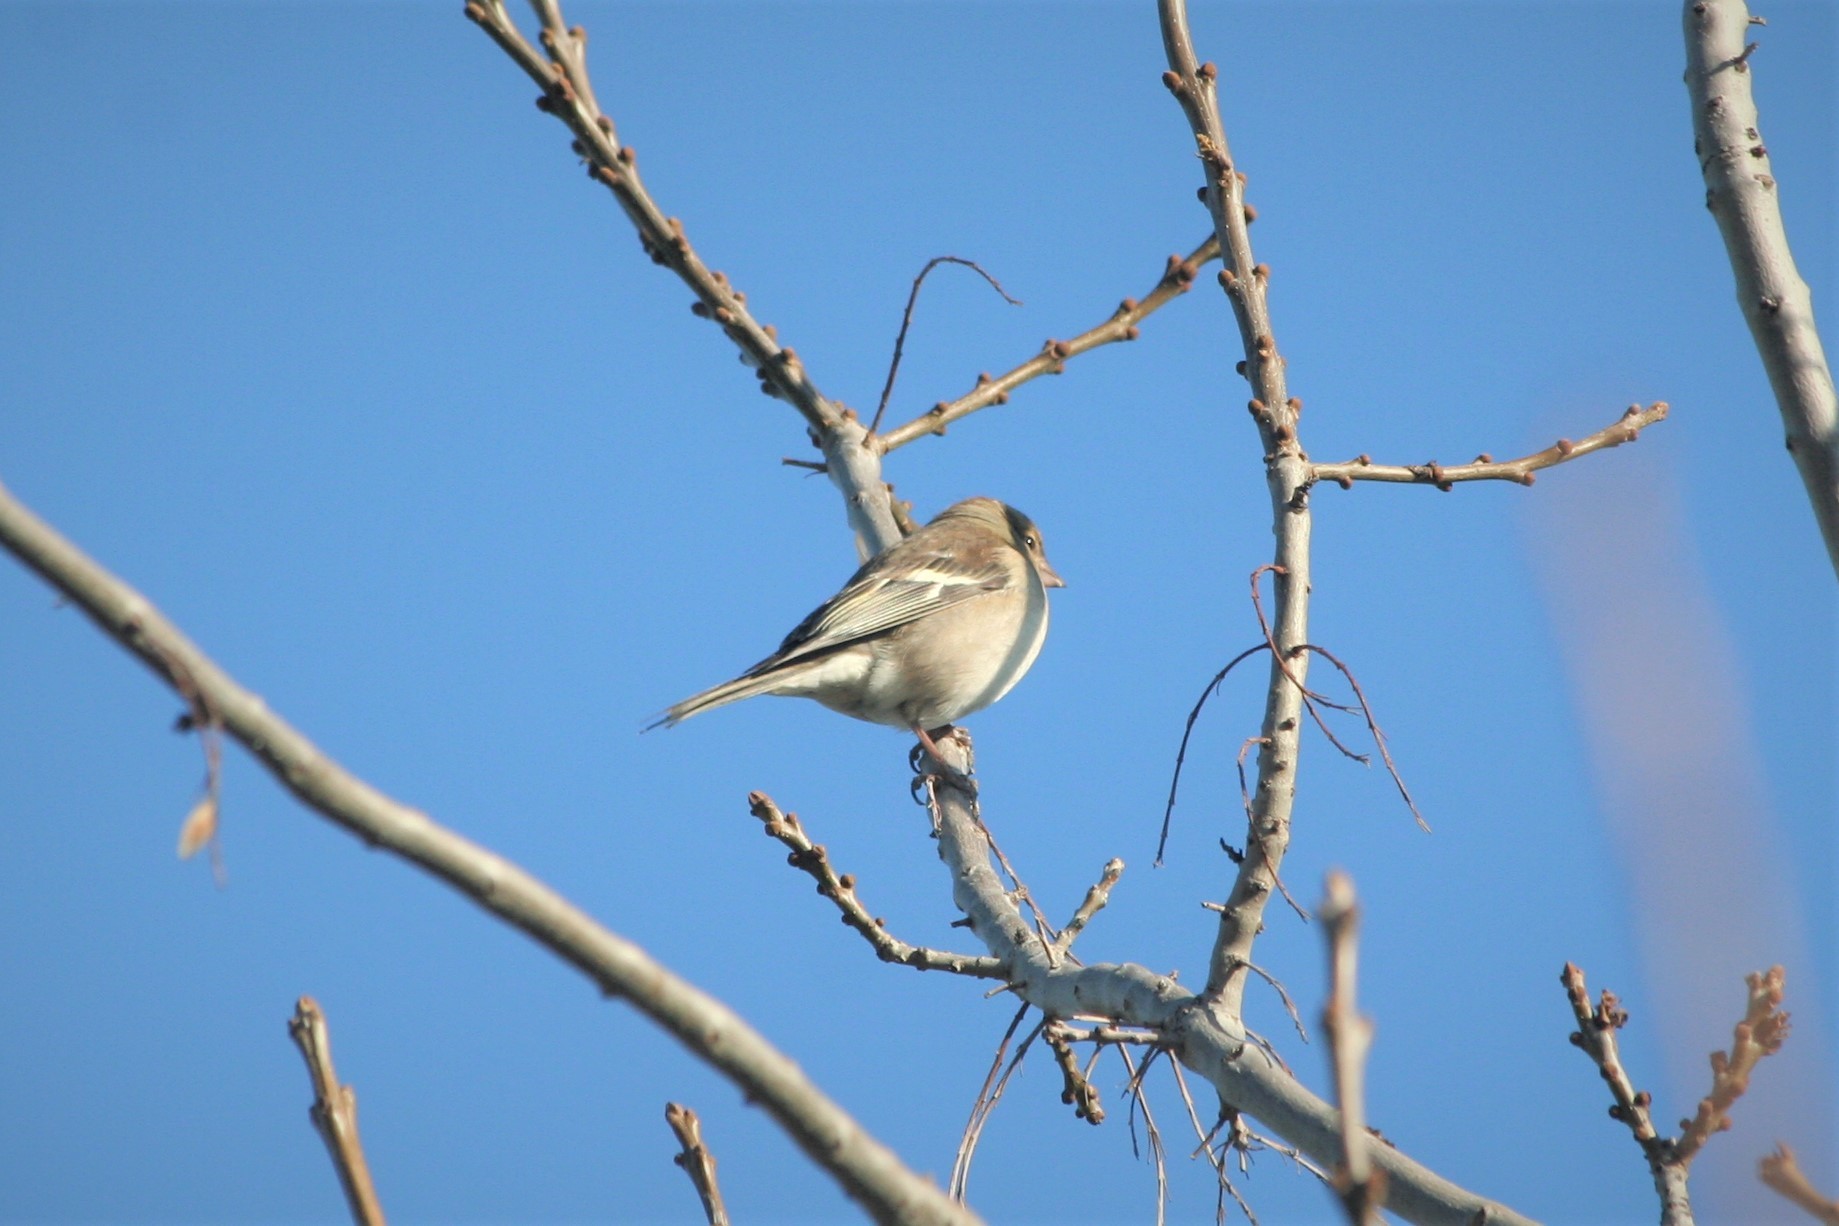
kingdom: Animalia
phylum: Chordata
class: Aves
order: Passeriformes
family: Fringillidae
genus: Fringilla
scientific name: Fringilla coelebs
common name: Common chaffinch
